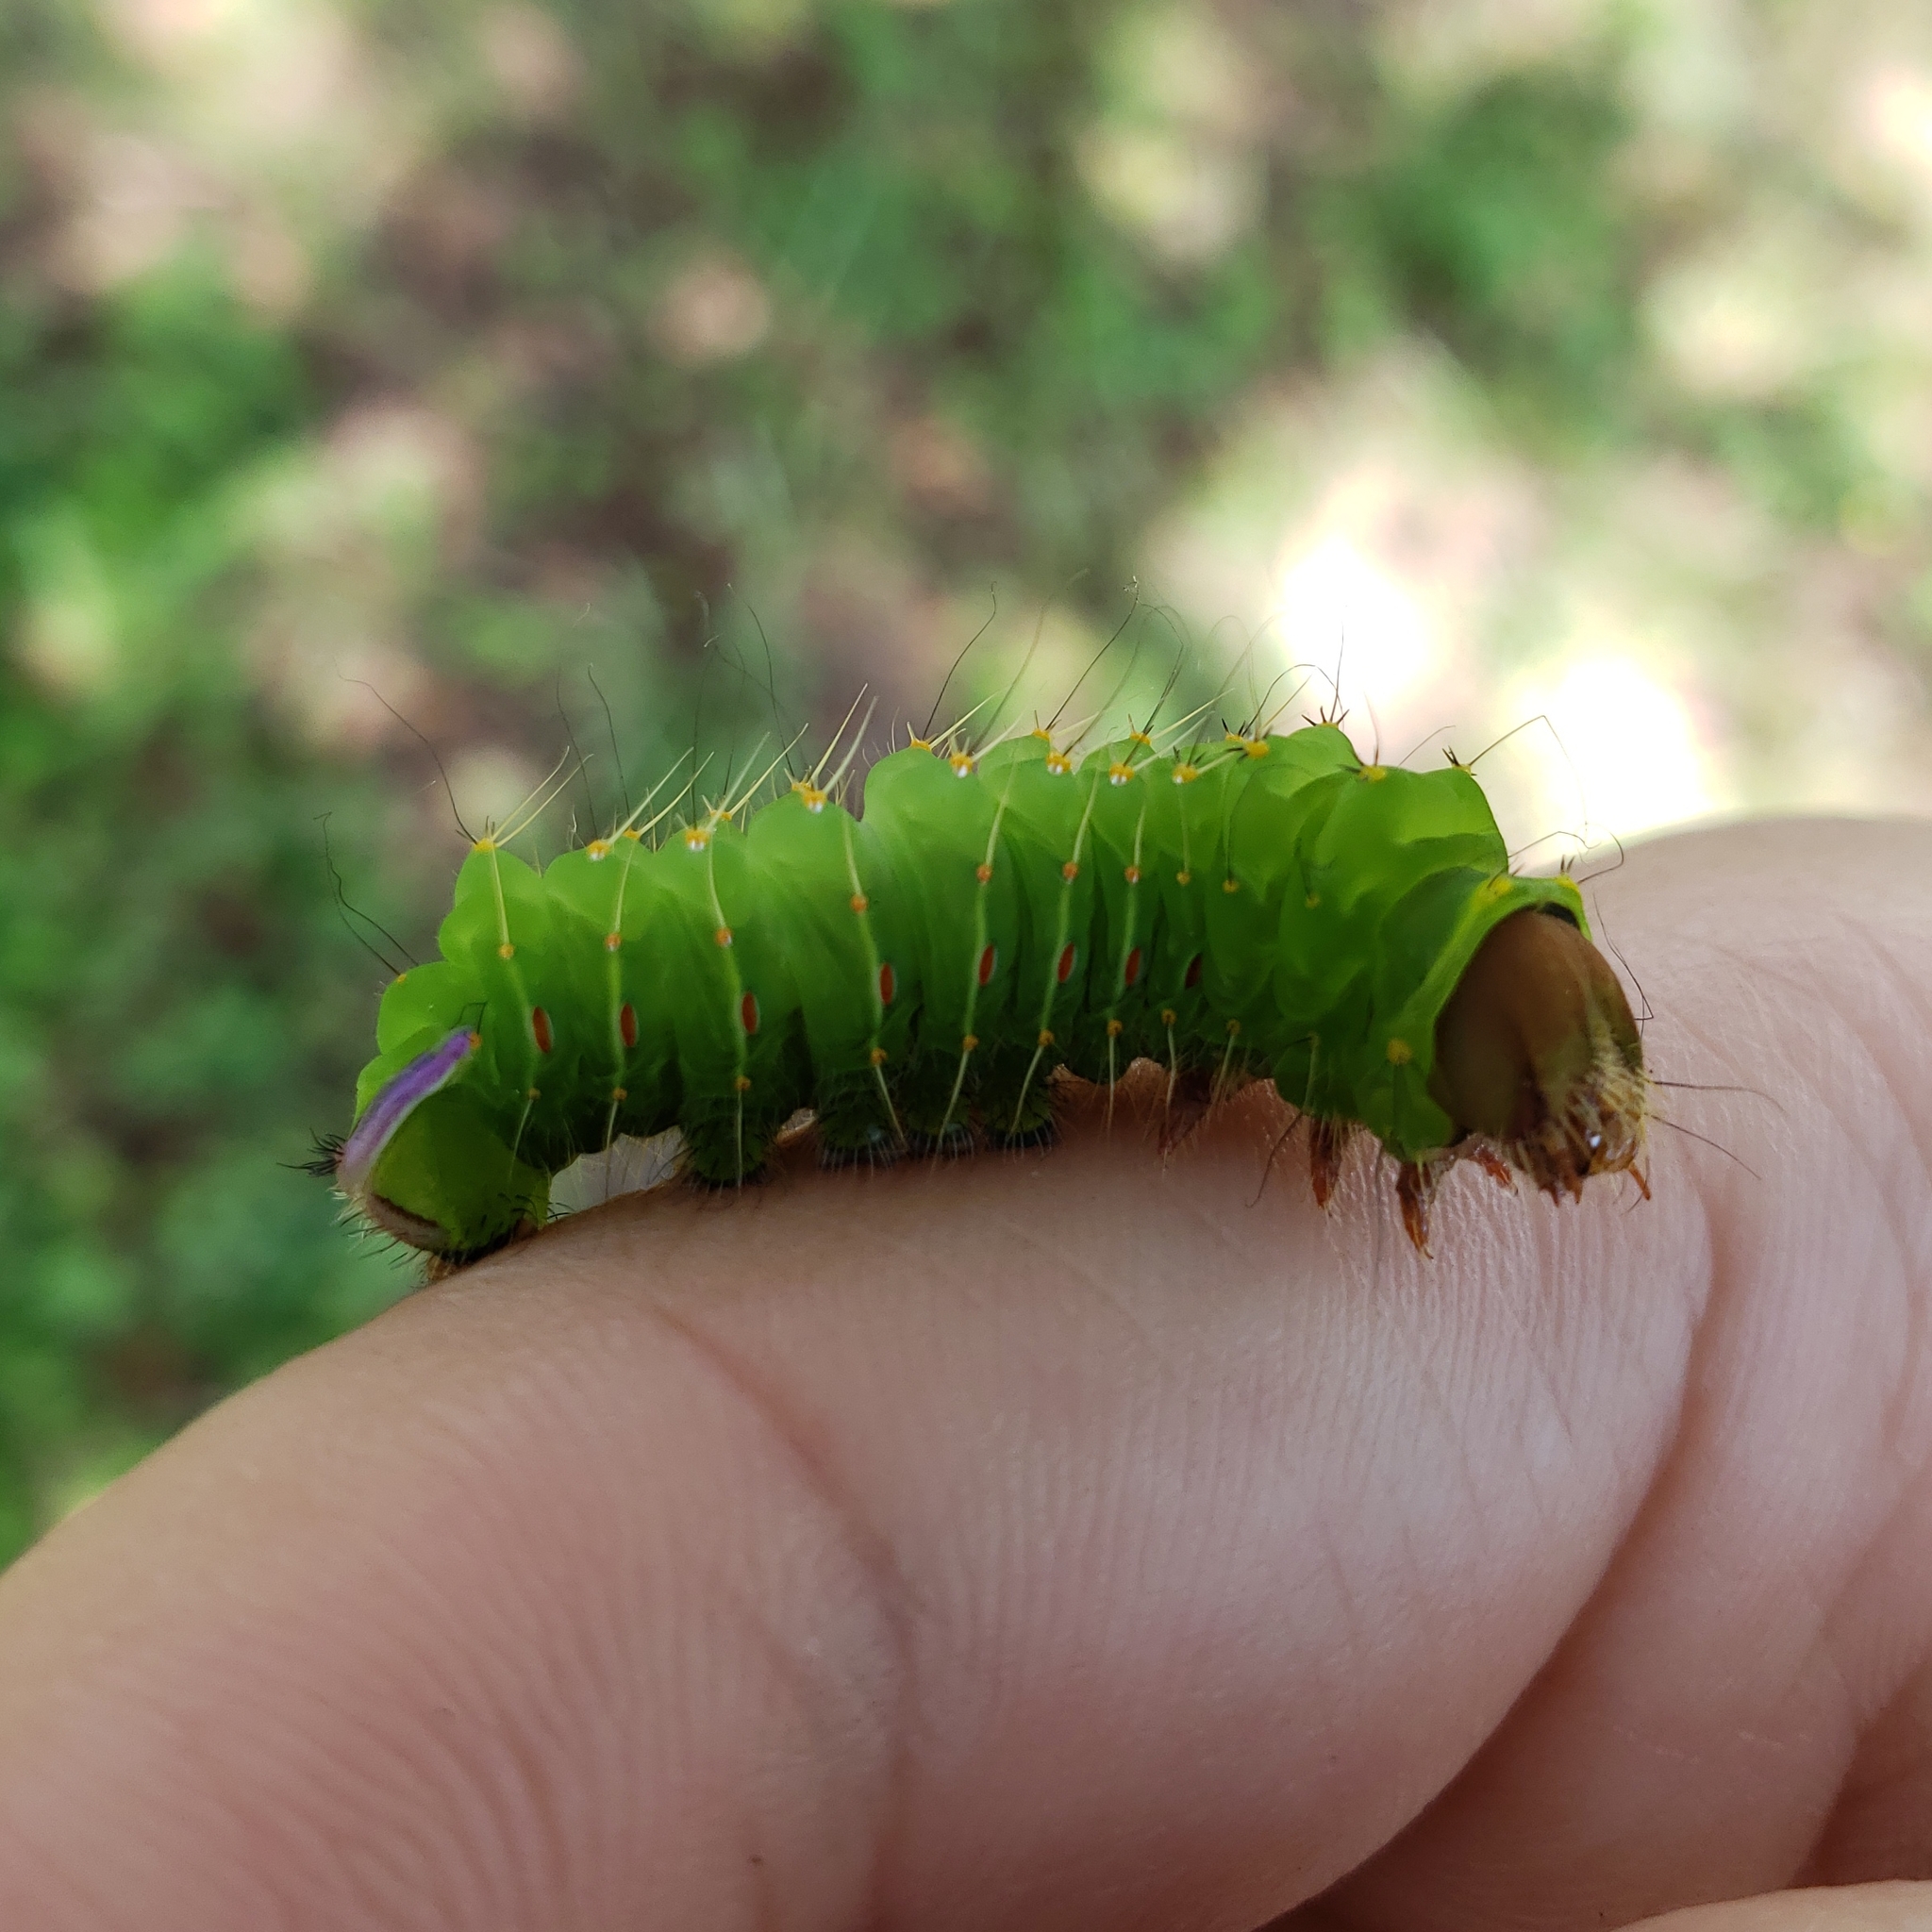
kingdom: Animalia
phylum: Arthropoda
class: Insecta
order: Lepidoptera
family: Saturniidae
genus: Antheraea
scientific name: Antheraea polyphemus
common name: Polyphemus moth
